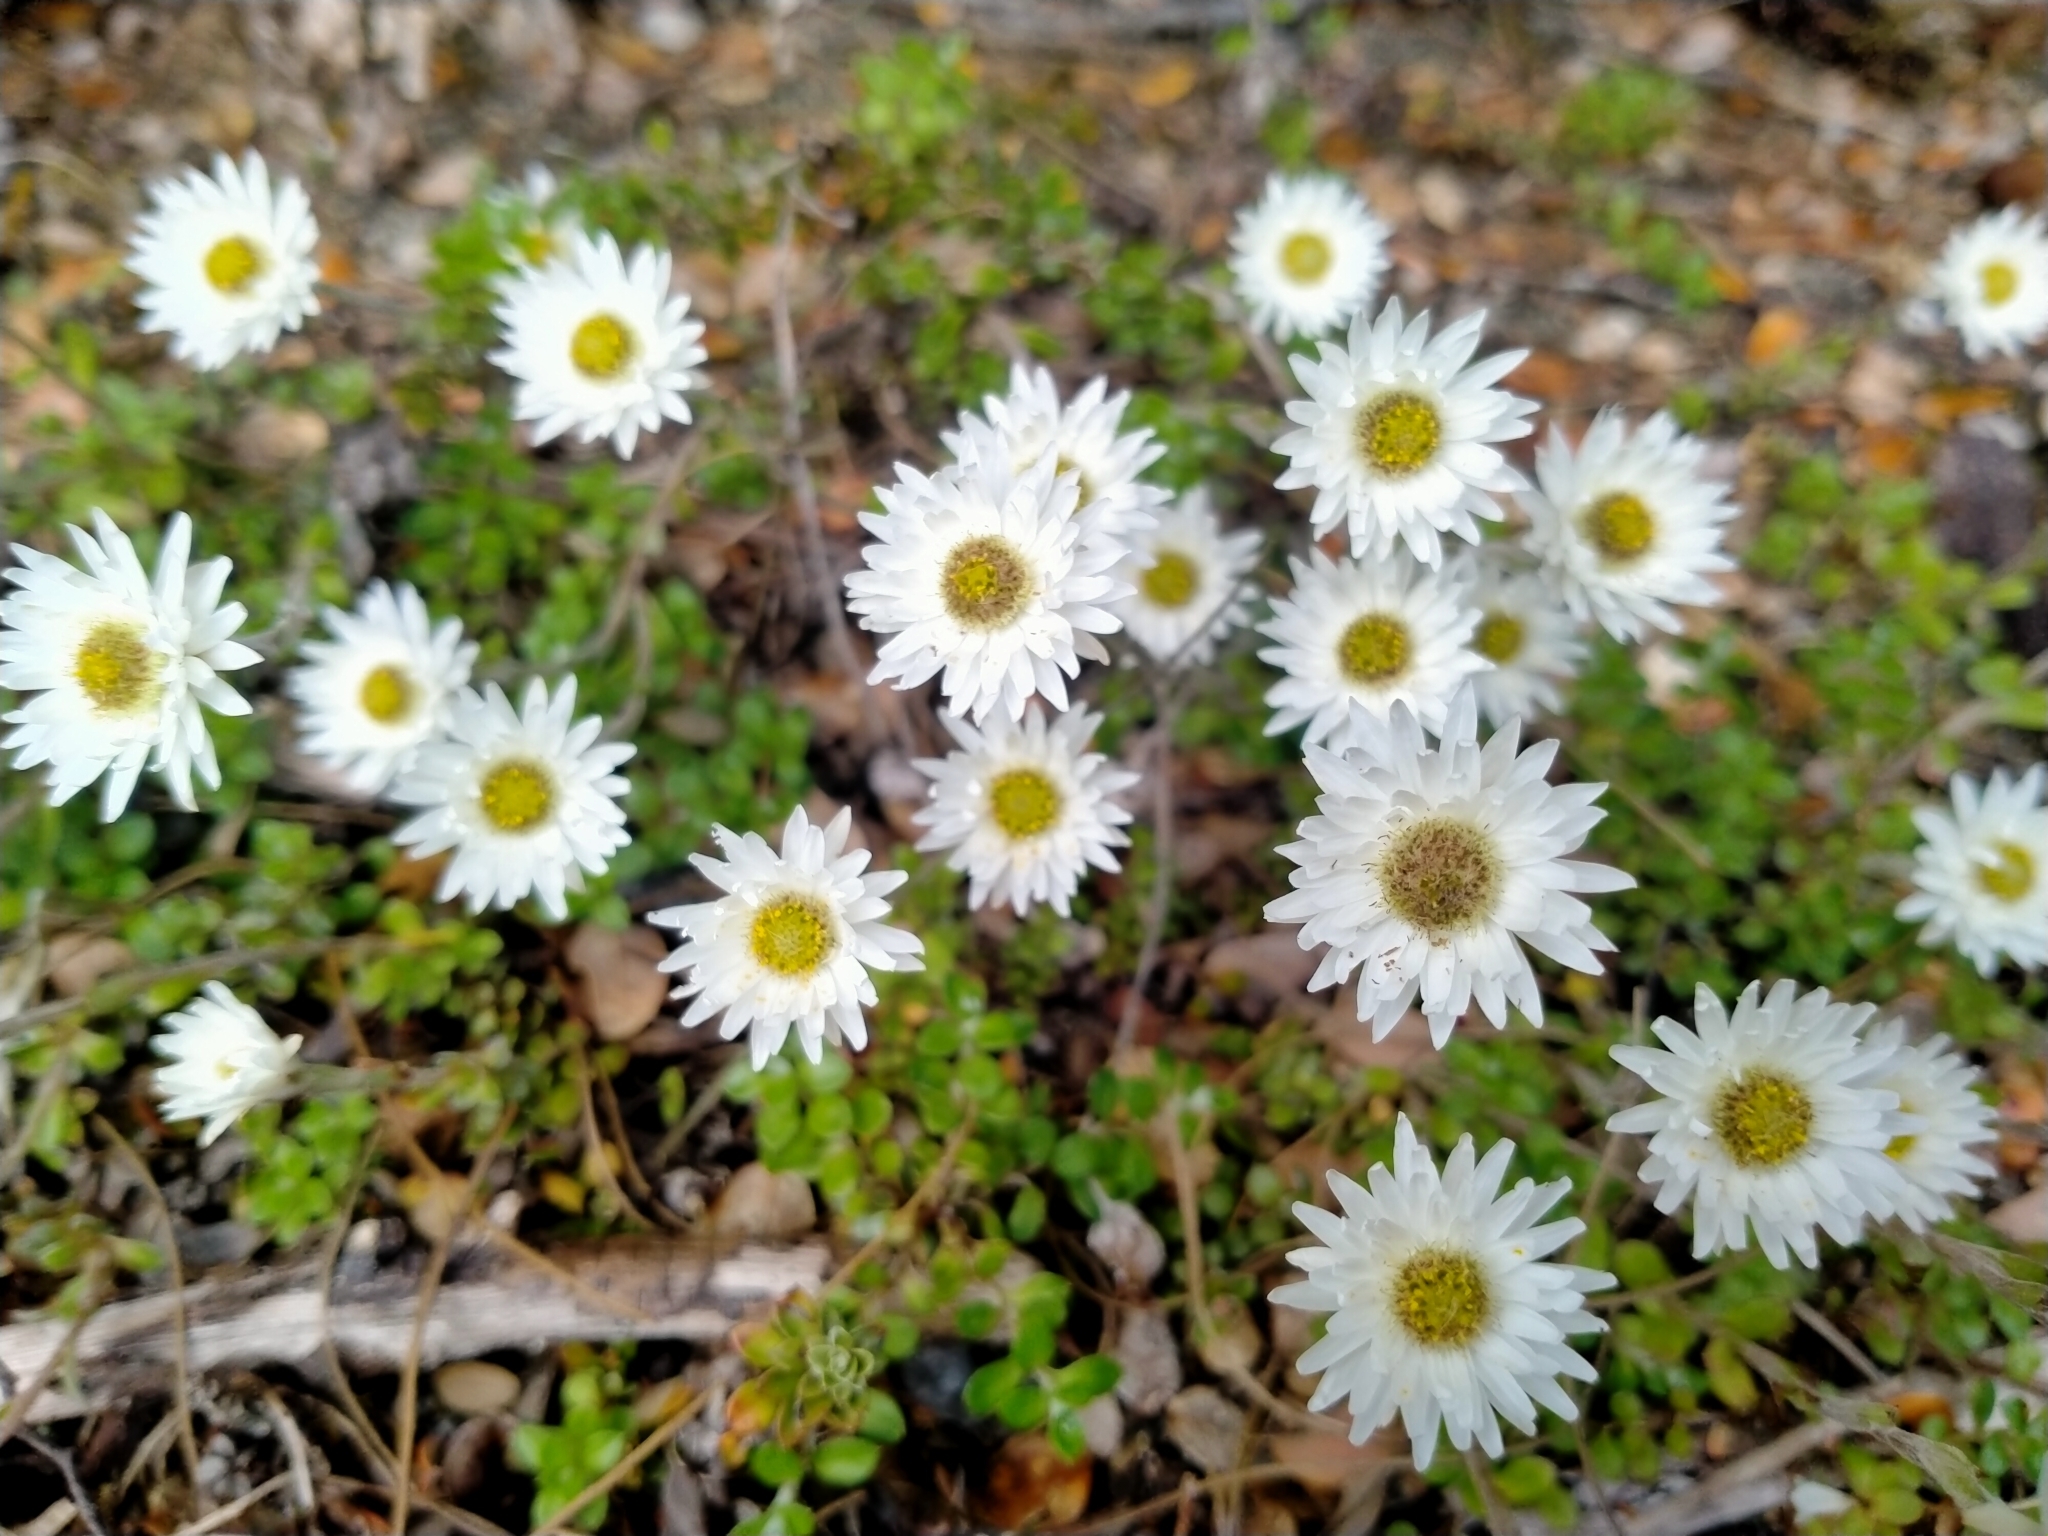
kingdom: Plantae
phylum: Tracheophyta
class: Magnoliopsida
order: Asterales
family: Asteraceae
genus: Anaphalioides
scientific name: Anaphalioides bellidioides
